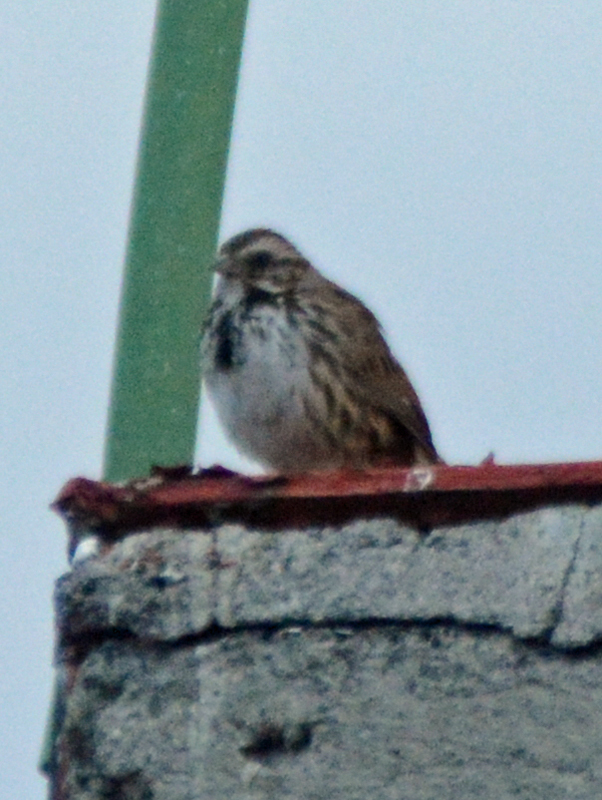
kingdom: Animalia
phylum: Chordata
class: Aves
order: Passeriformes
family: Passerellidae
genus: Melospiza
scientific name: Melospiza melodia
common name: Song sparrow
